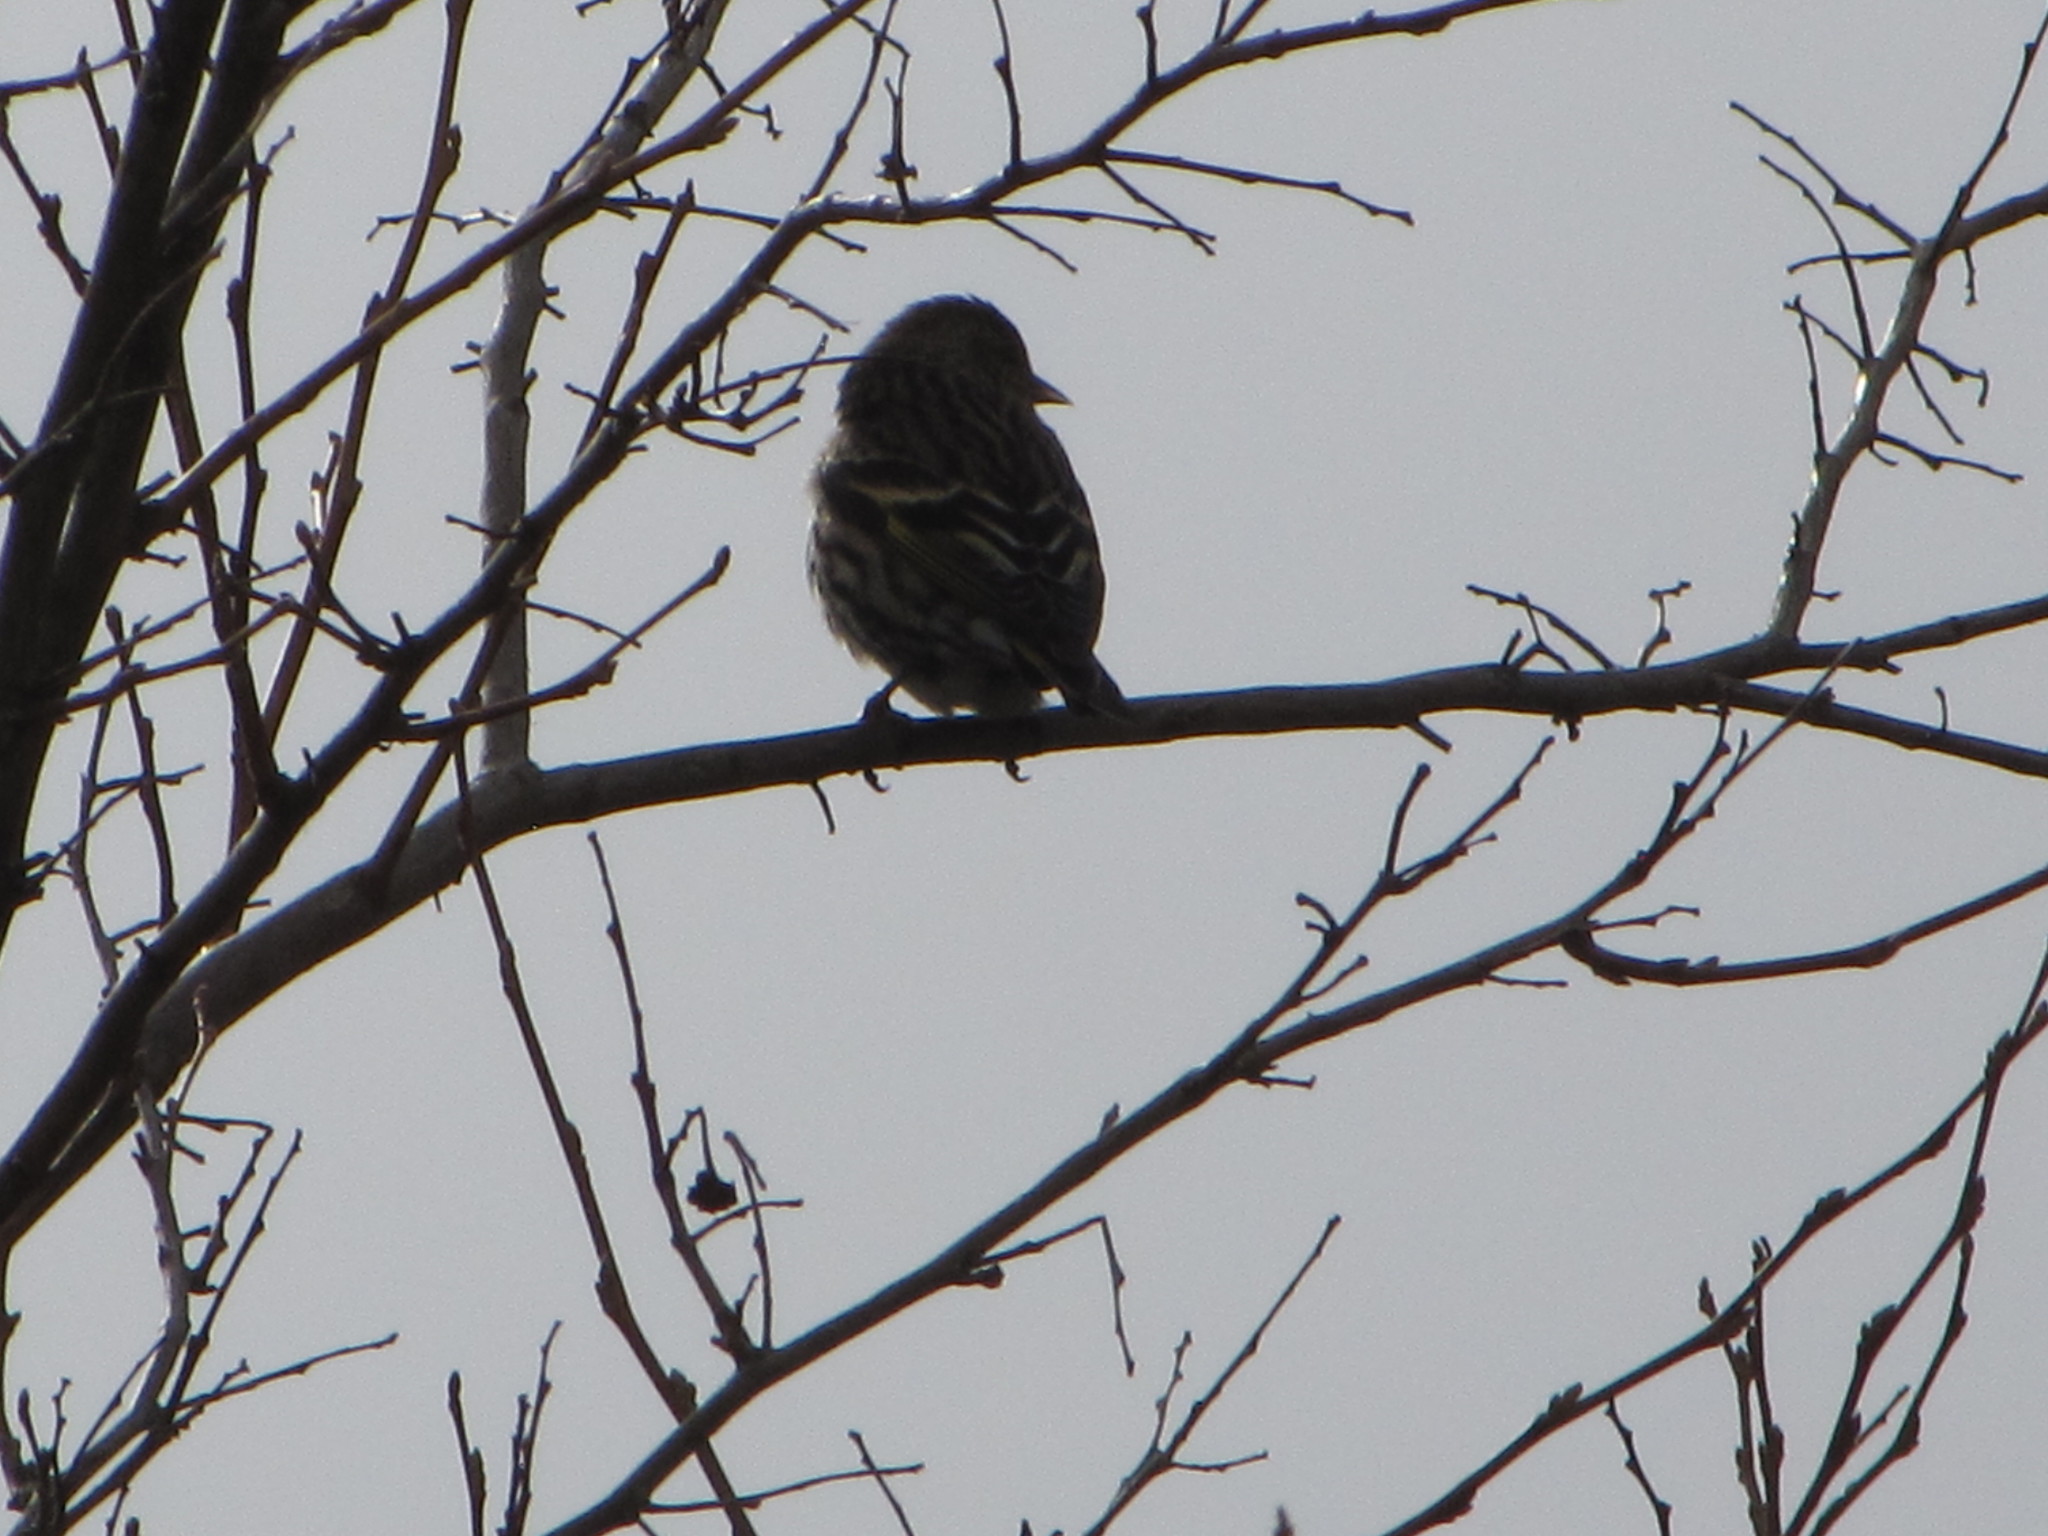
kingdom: Animalia
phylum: Chordata
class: Aves
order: Passeriformes
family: Fringillidae
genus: Spinus
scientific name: Spinus pinus
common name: Pine siskin
